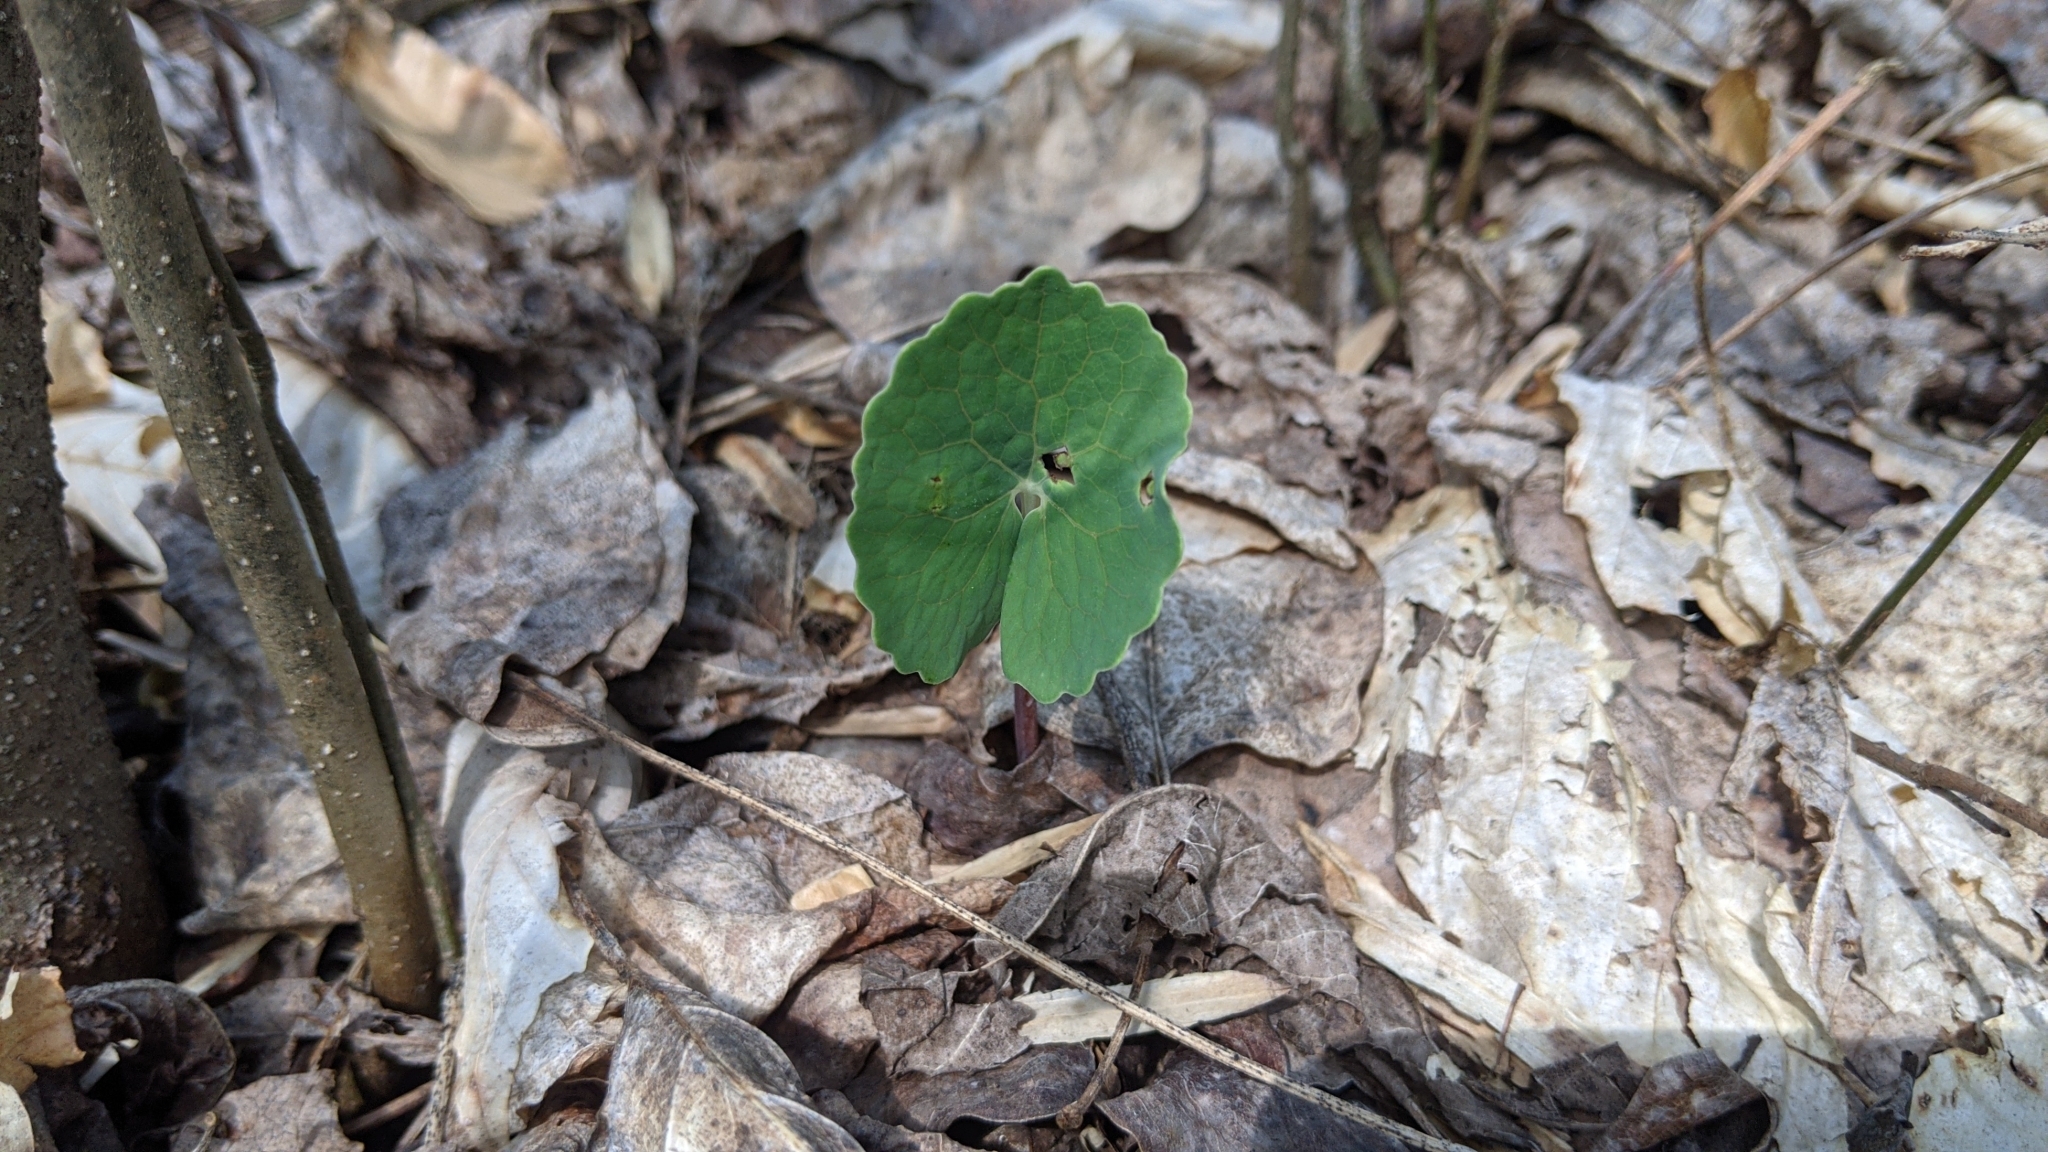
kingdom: Plantae
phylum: Tracheophyta
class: Magnoliopsida
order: Ranunculales
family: Papaveraceae
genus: Sanguinaria
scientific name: Sanguinaria canadensis
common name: Bloodroot
